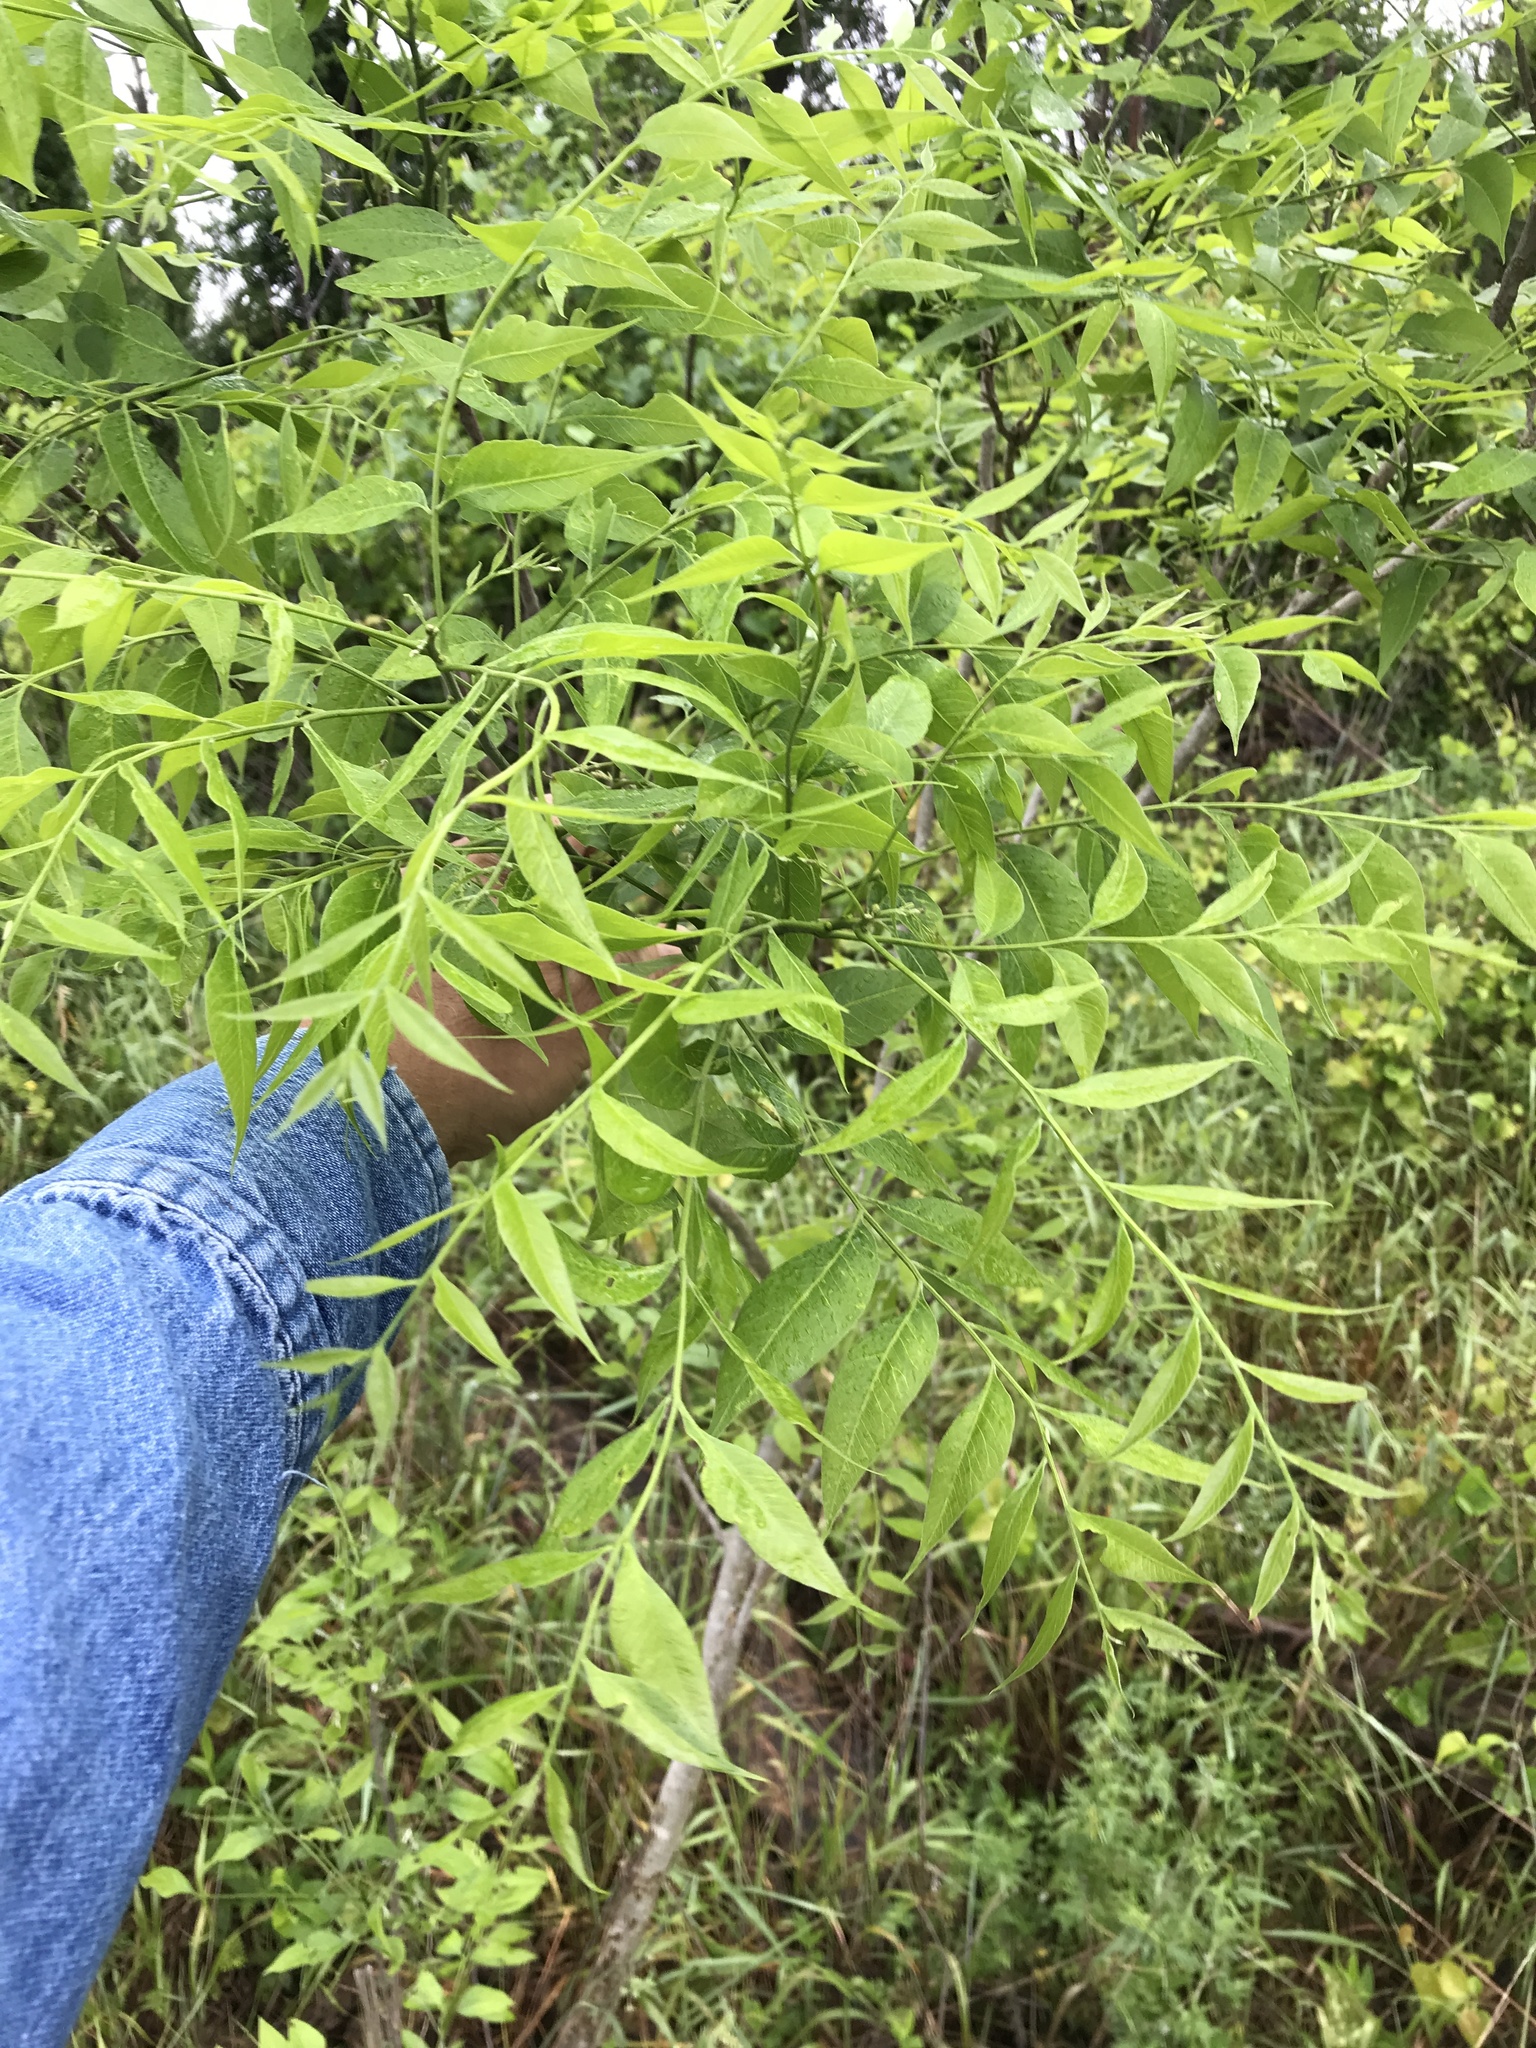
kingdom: Plantae
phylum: Tracheophyta
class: Magnoliopsida
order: Sapindales
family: Sapindaceae
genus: Sapindus
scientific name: Sapindus drummondii
